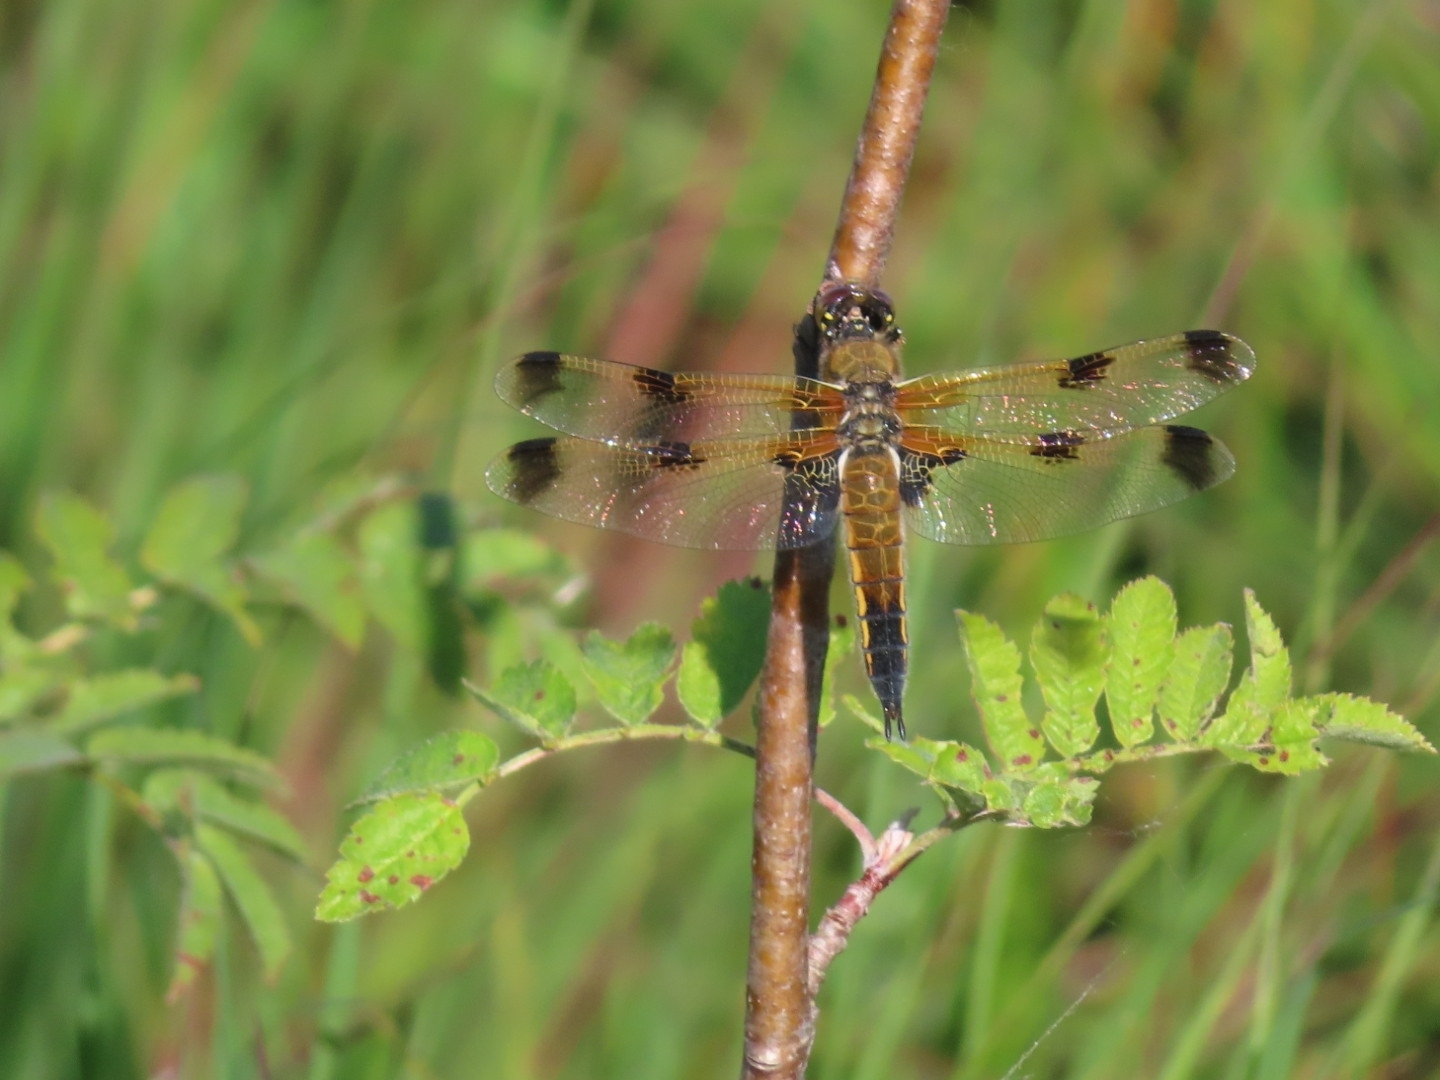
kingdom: Animalia
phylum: Arthropoda
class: Insecta
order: Odonata
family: Libellulidae
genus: Libellula
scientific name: Libellula quadrimaculata
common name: Four-spotted chaser
